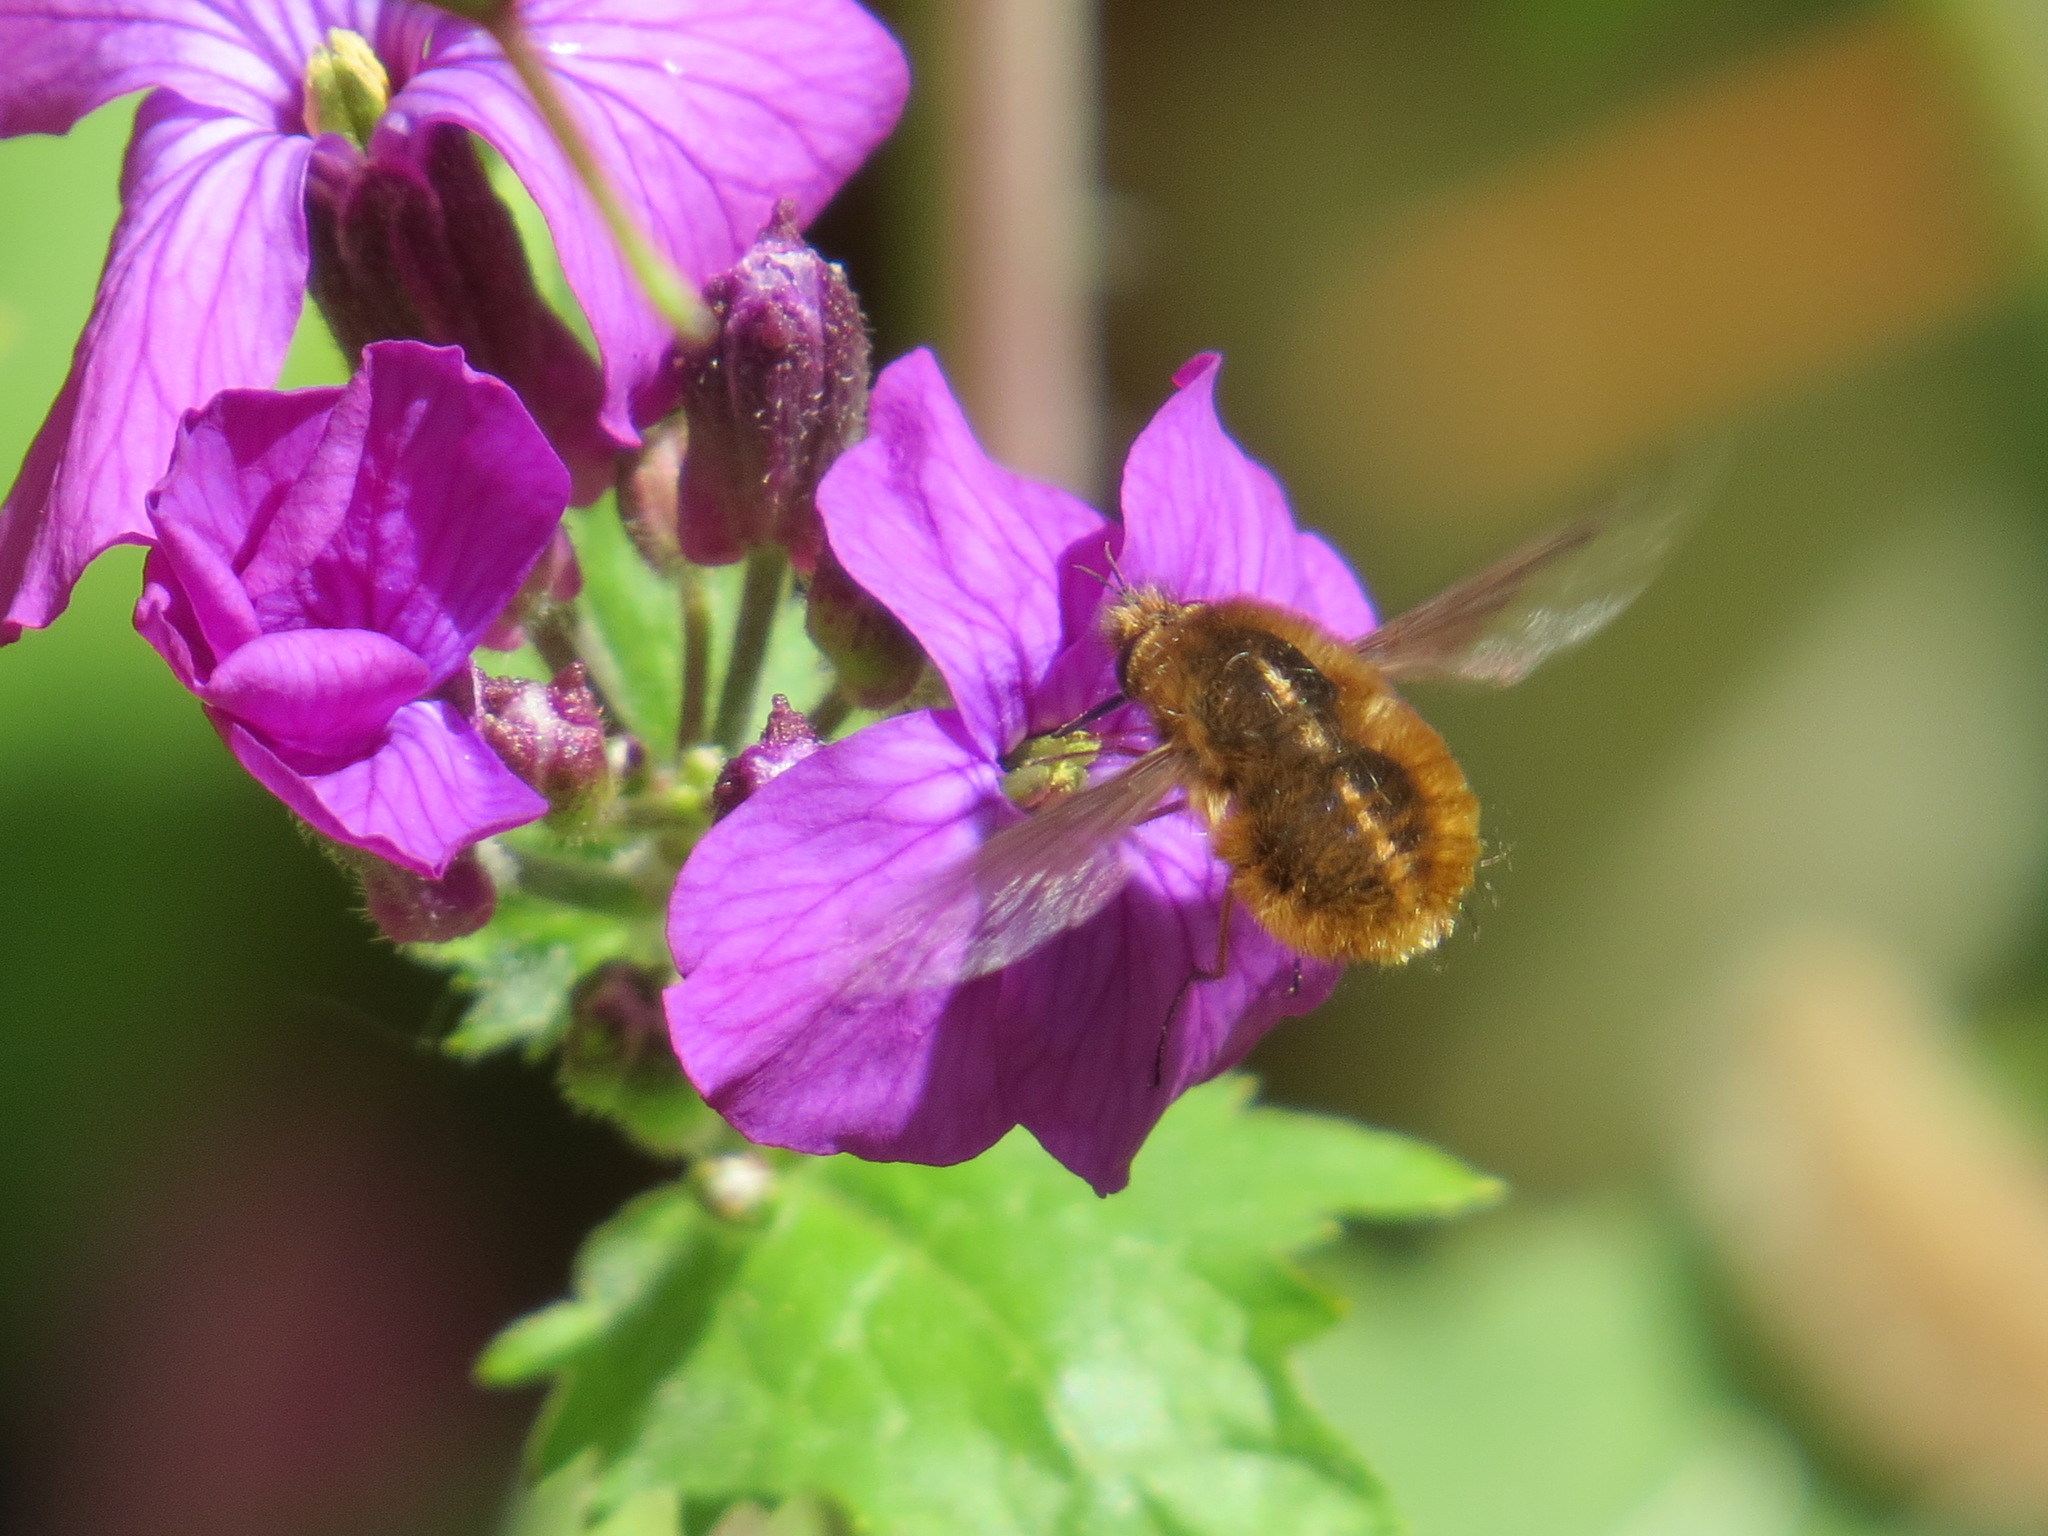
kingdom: Animalia
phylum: Arthropoda
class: Insecta
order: Diptera
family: Bombyliidae
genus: Bombylius
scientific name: Bombylius major
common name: Bee fly
